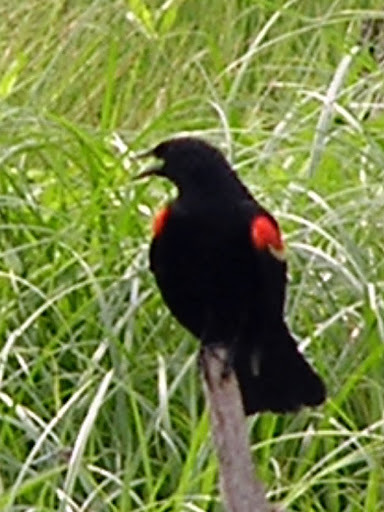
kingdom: Animalia
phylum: Chordata
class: Aves
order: Passeriformes
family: Icteridae
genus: Agelaius
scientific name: Agelaius phoeniceus
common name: Red-winged blackbird
